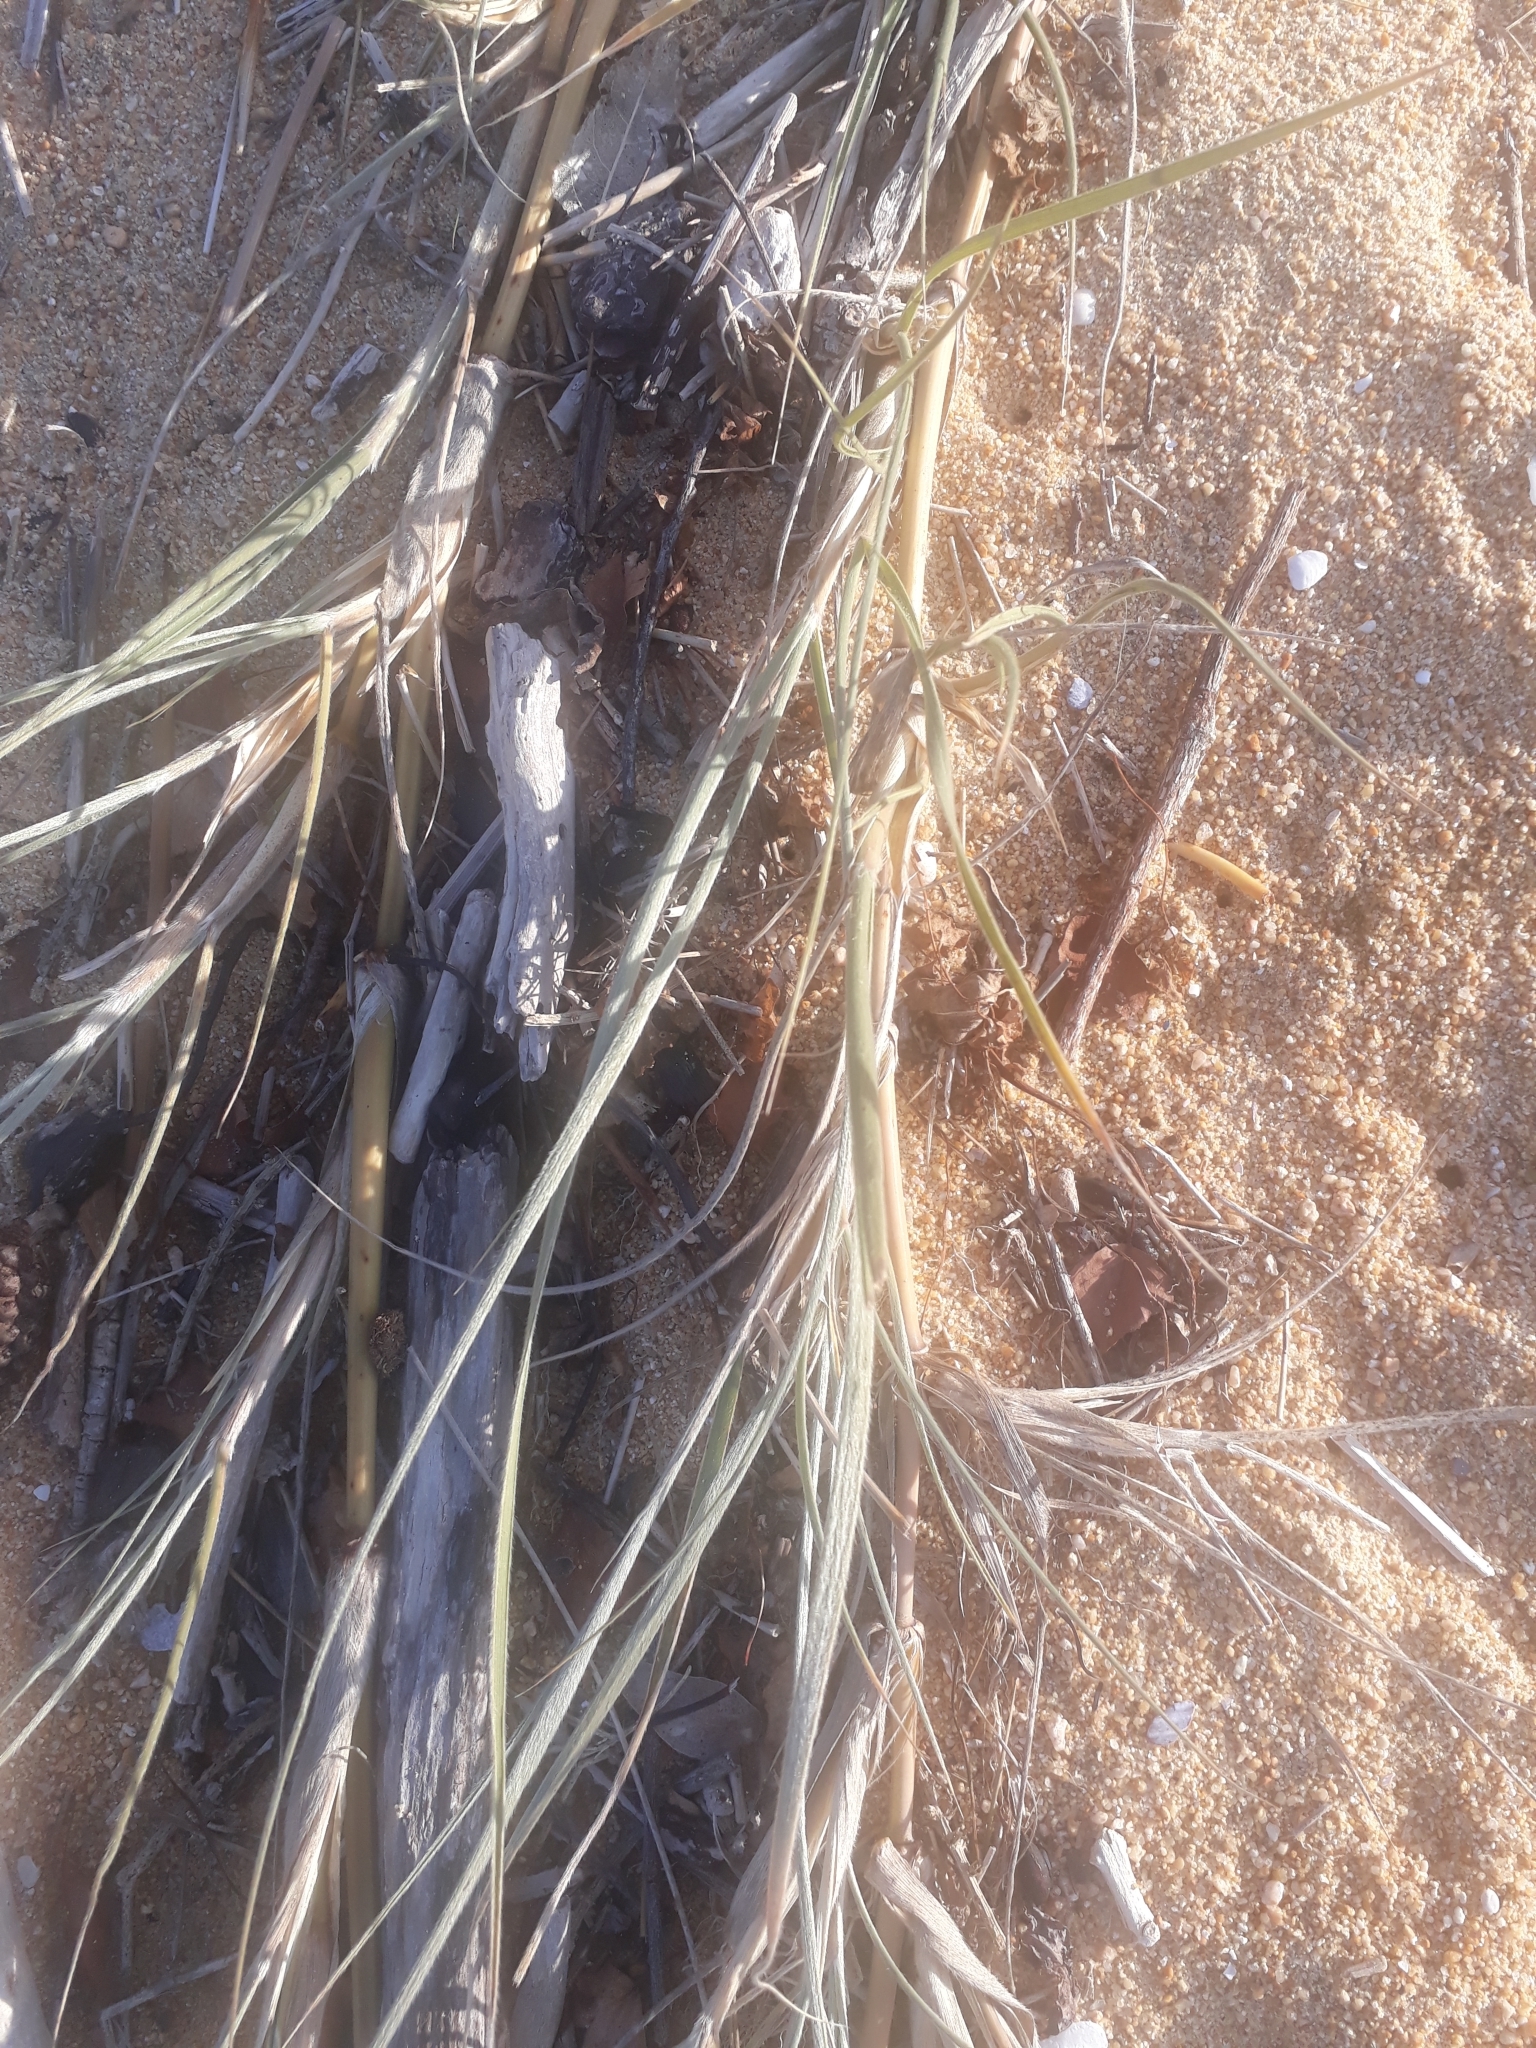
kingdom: Plantae
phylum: Tracheophyta
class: Liliopsida
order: Poales
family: Poaceae
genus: Spinifex
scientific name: Spinifex sericeus
